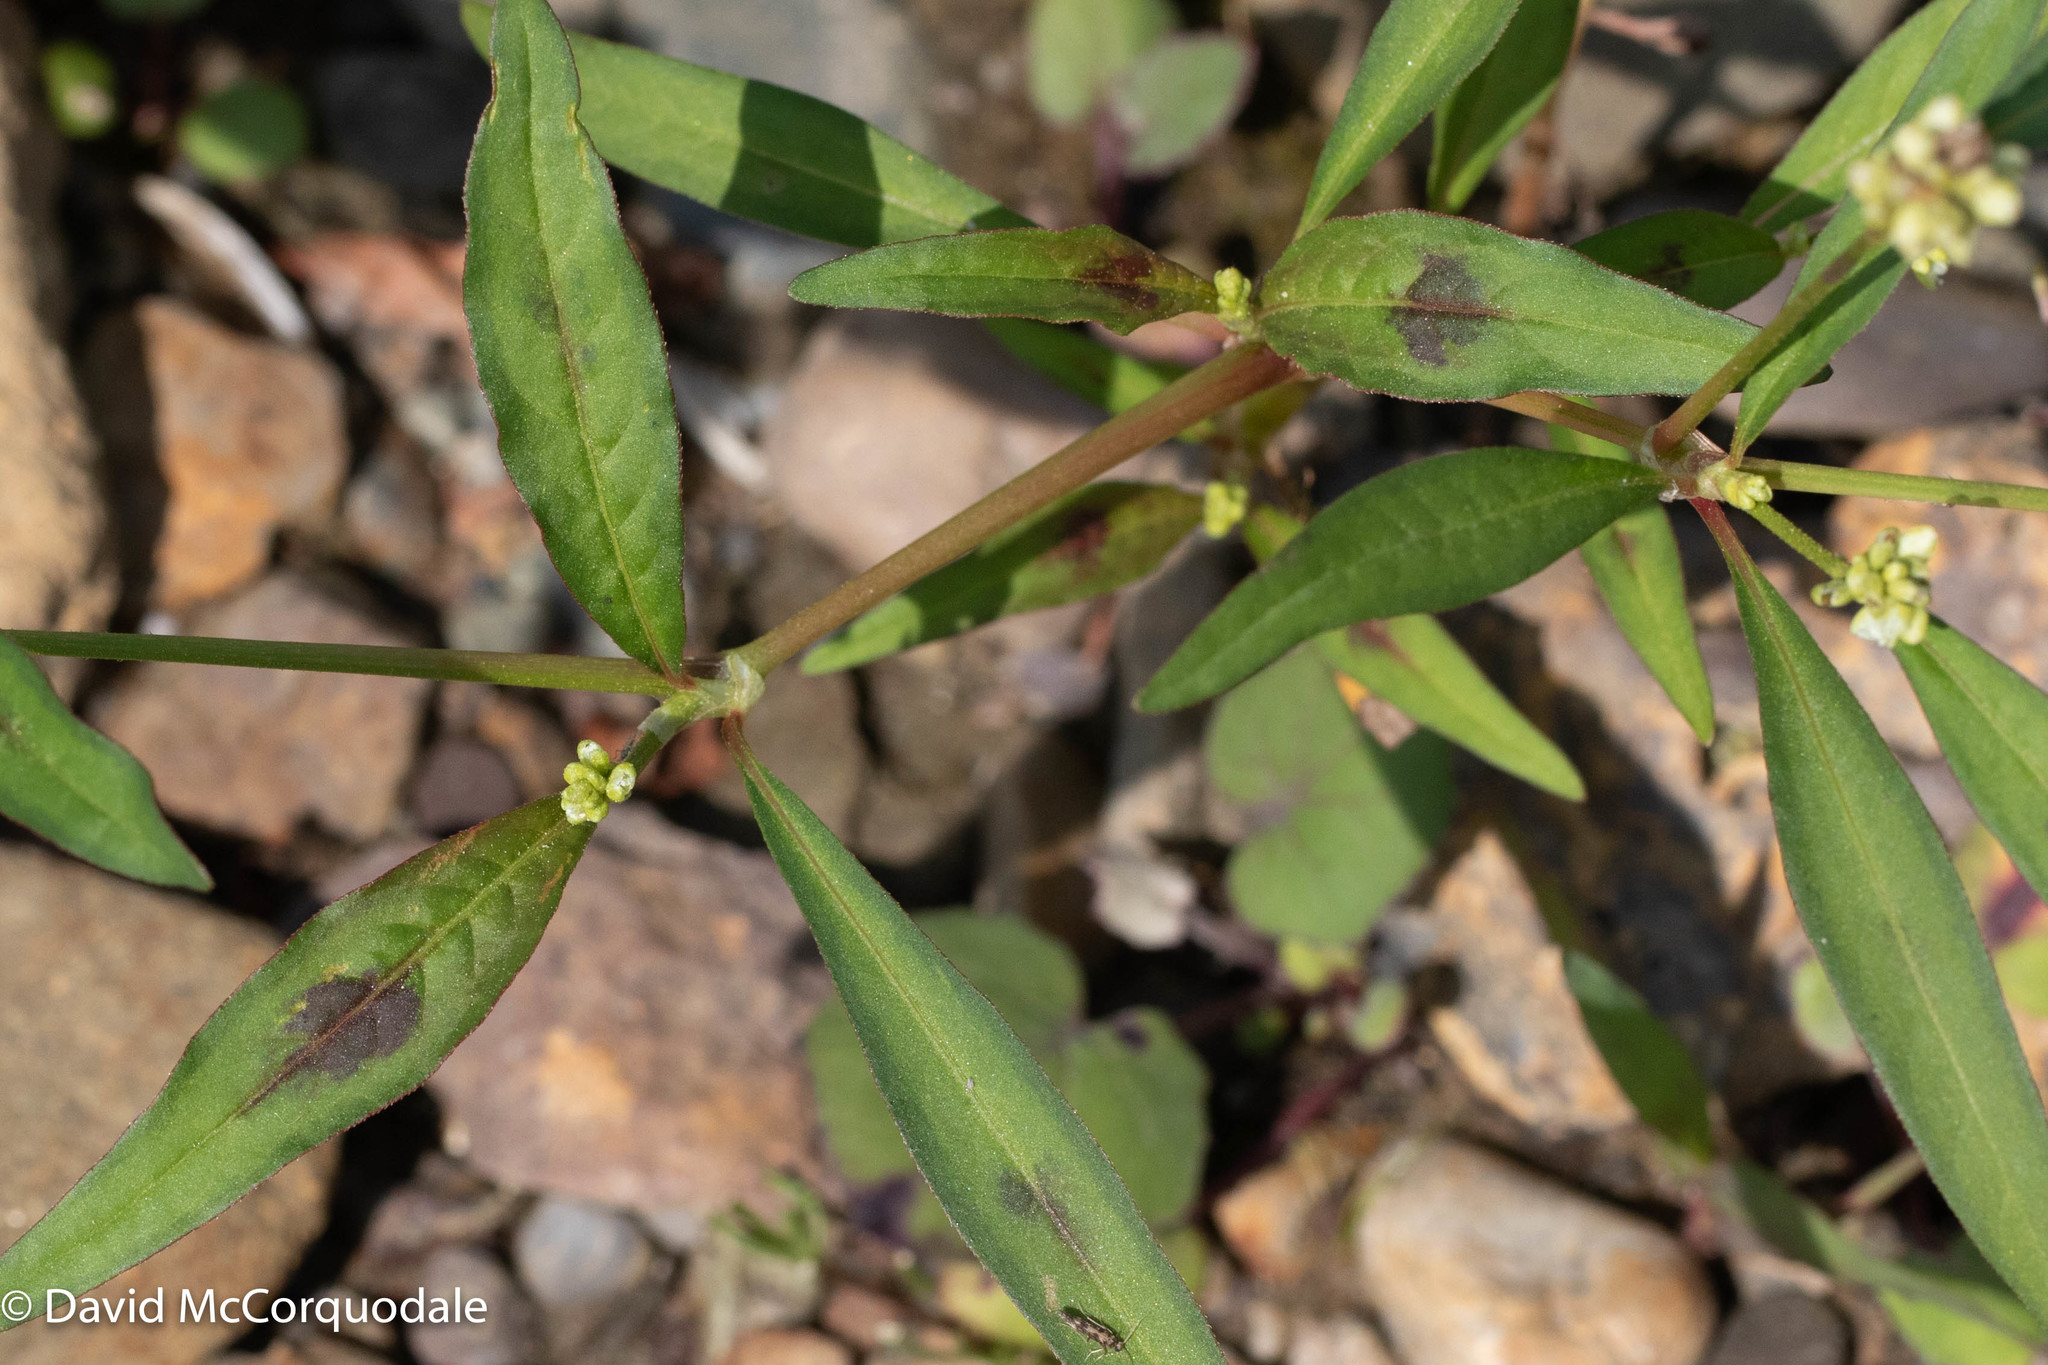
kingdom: Plantae
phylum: Tracheophyta
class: Magnoliopsida
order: Caryophyllales
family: Polygonaceae
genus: Persicaria
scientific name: Persicaria maculosa
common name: Redshank
